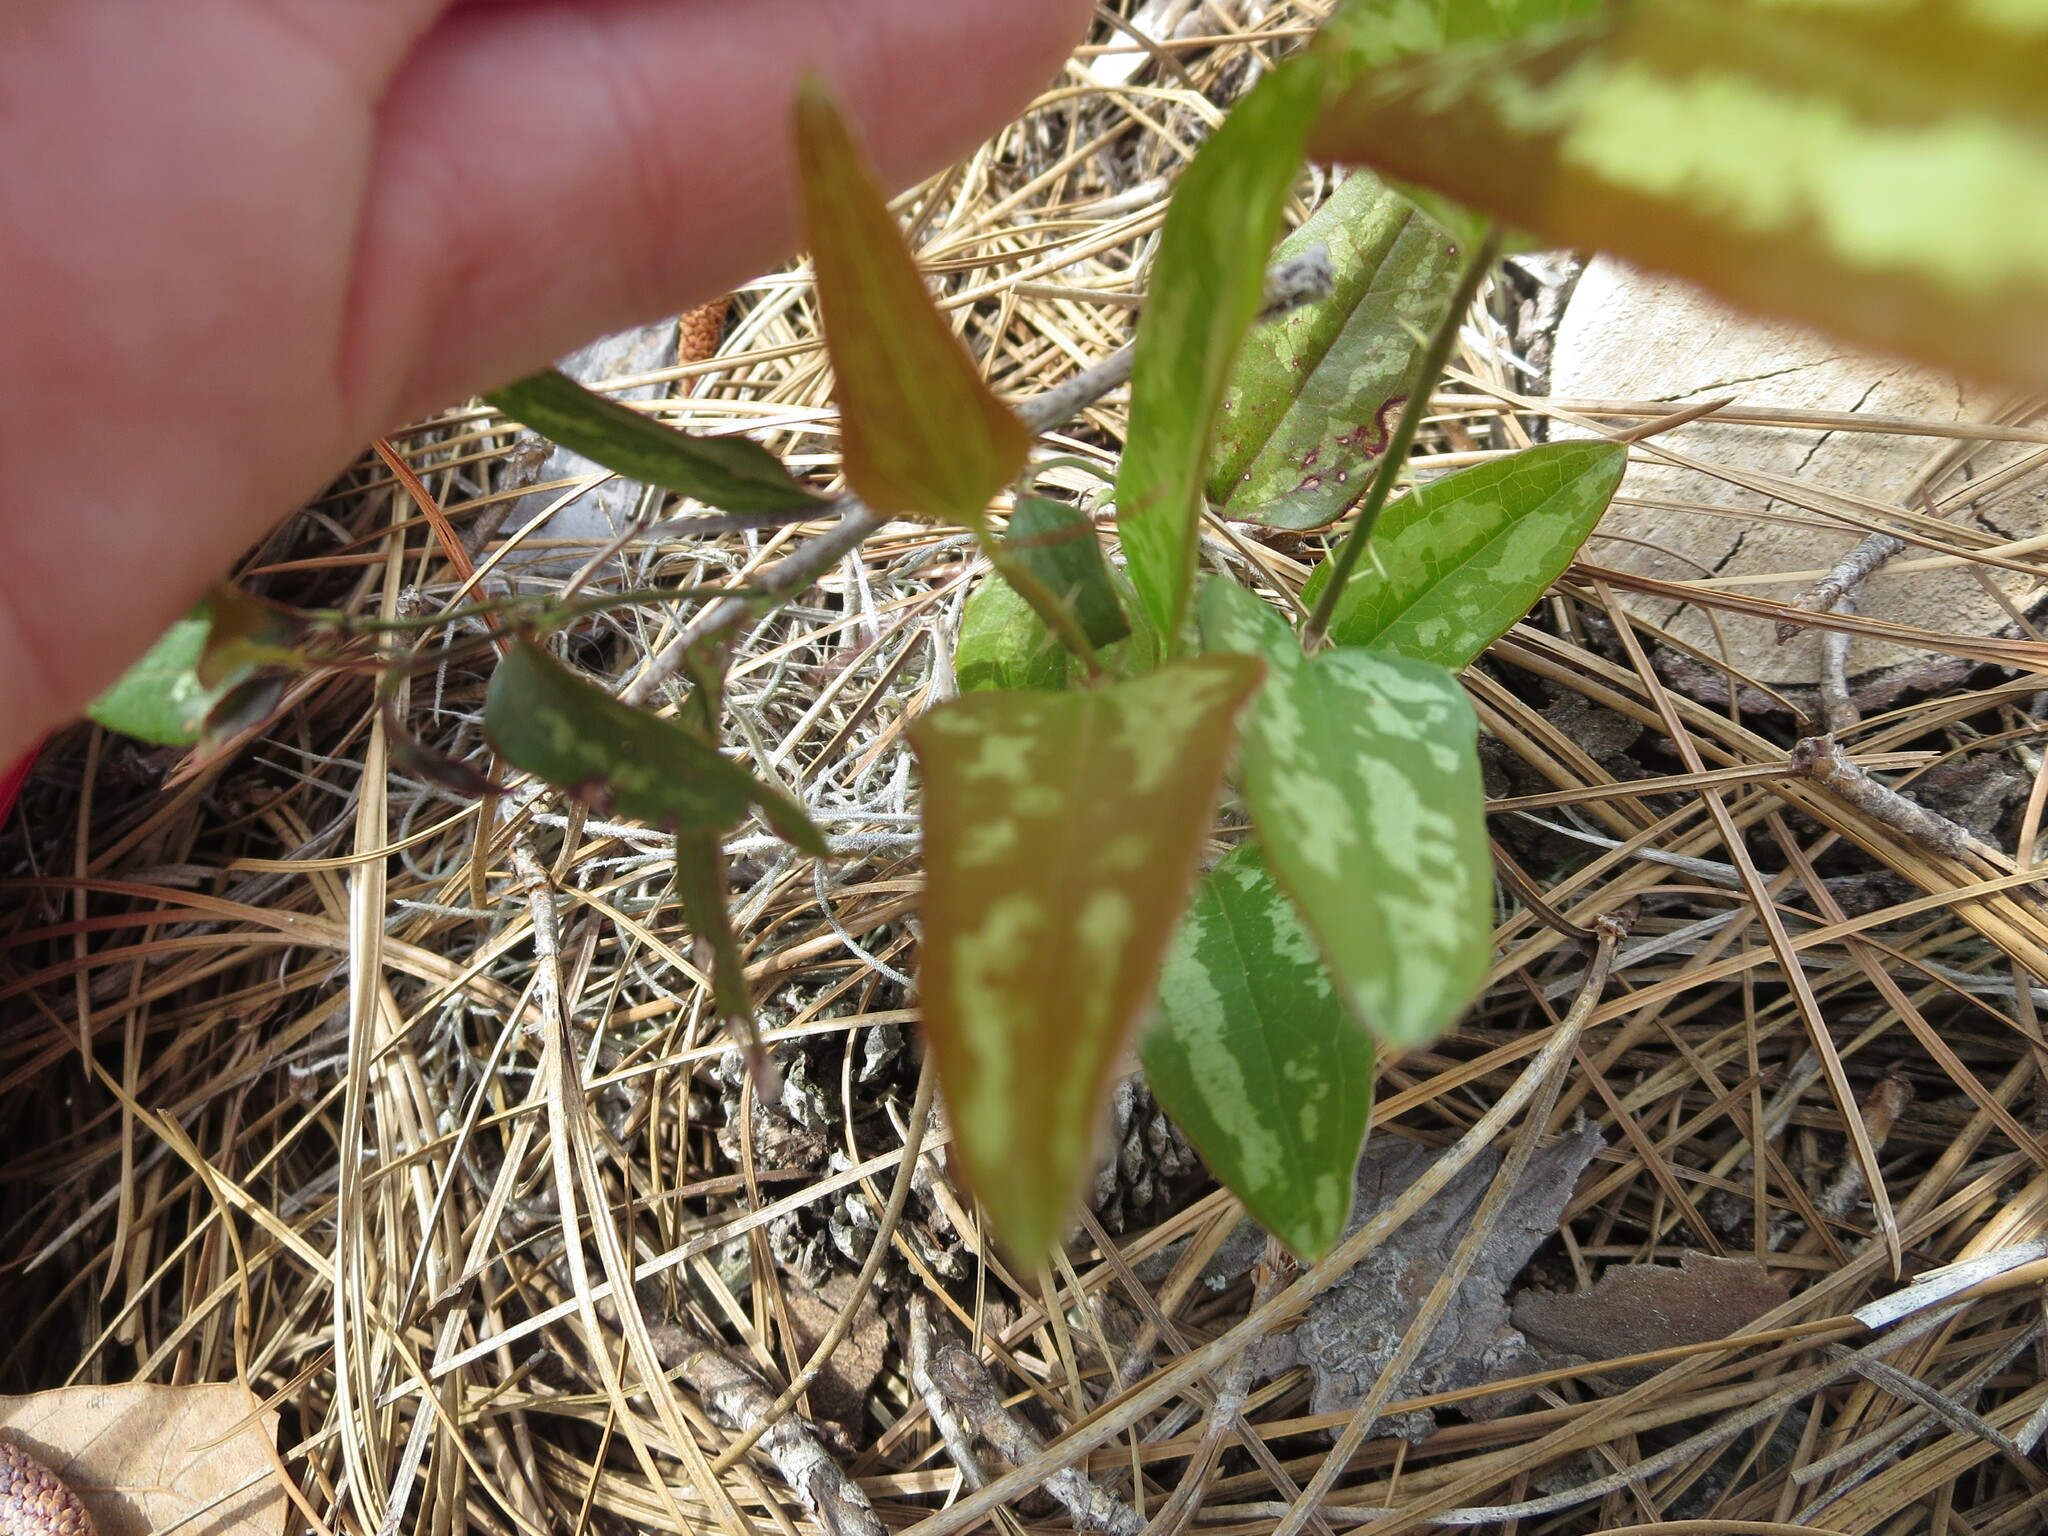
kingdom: Plantae
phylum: Tracheophyta
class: Liliopsida
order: Liliales
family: Smilacaceae
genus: Smilax
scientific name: Smilax bona-nox
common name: Catbrier
